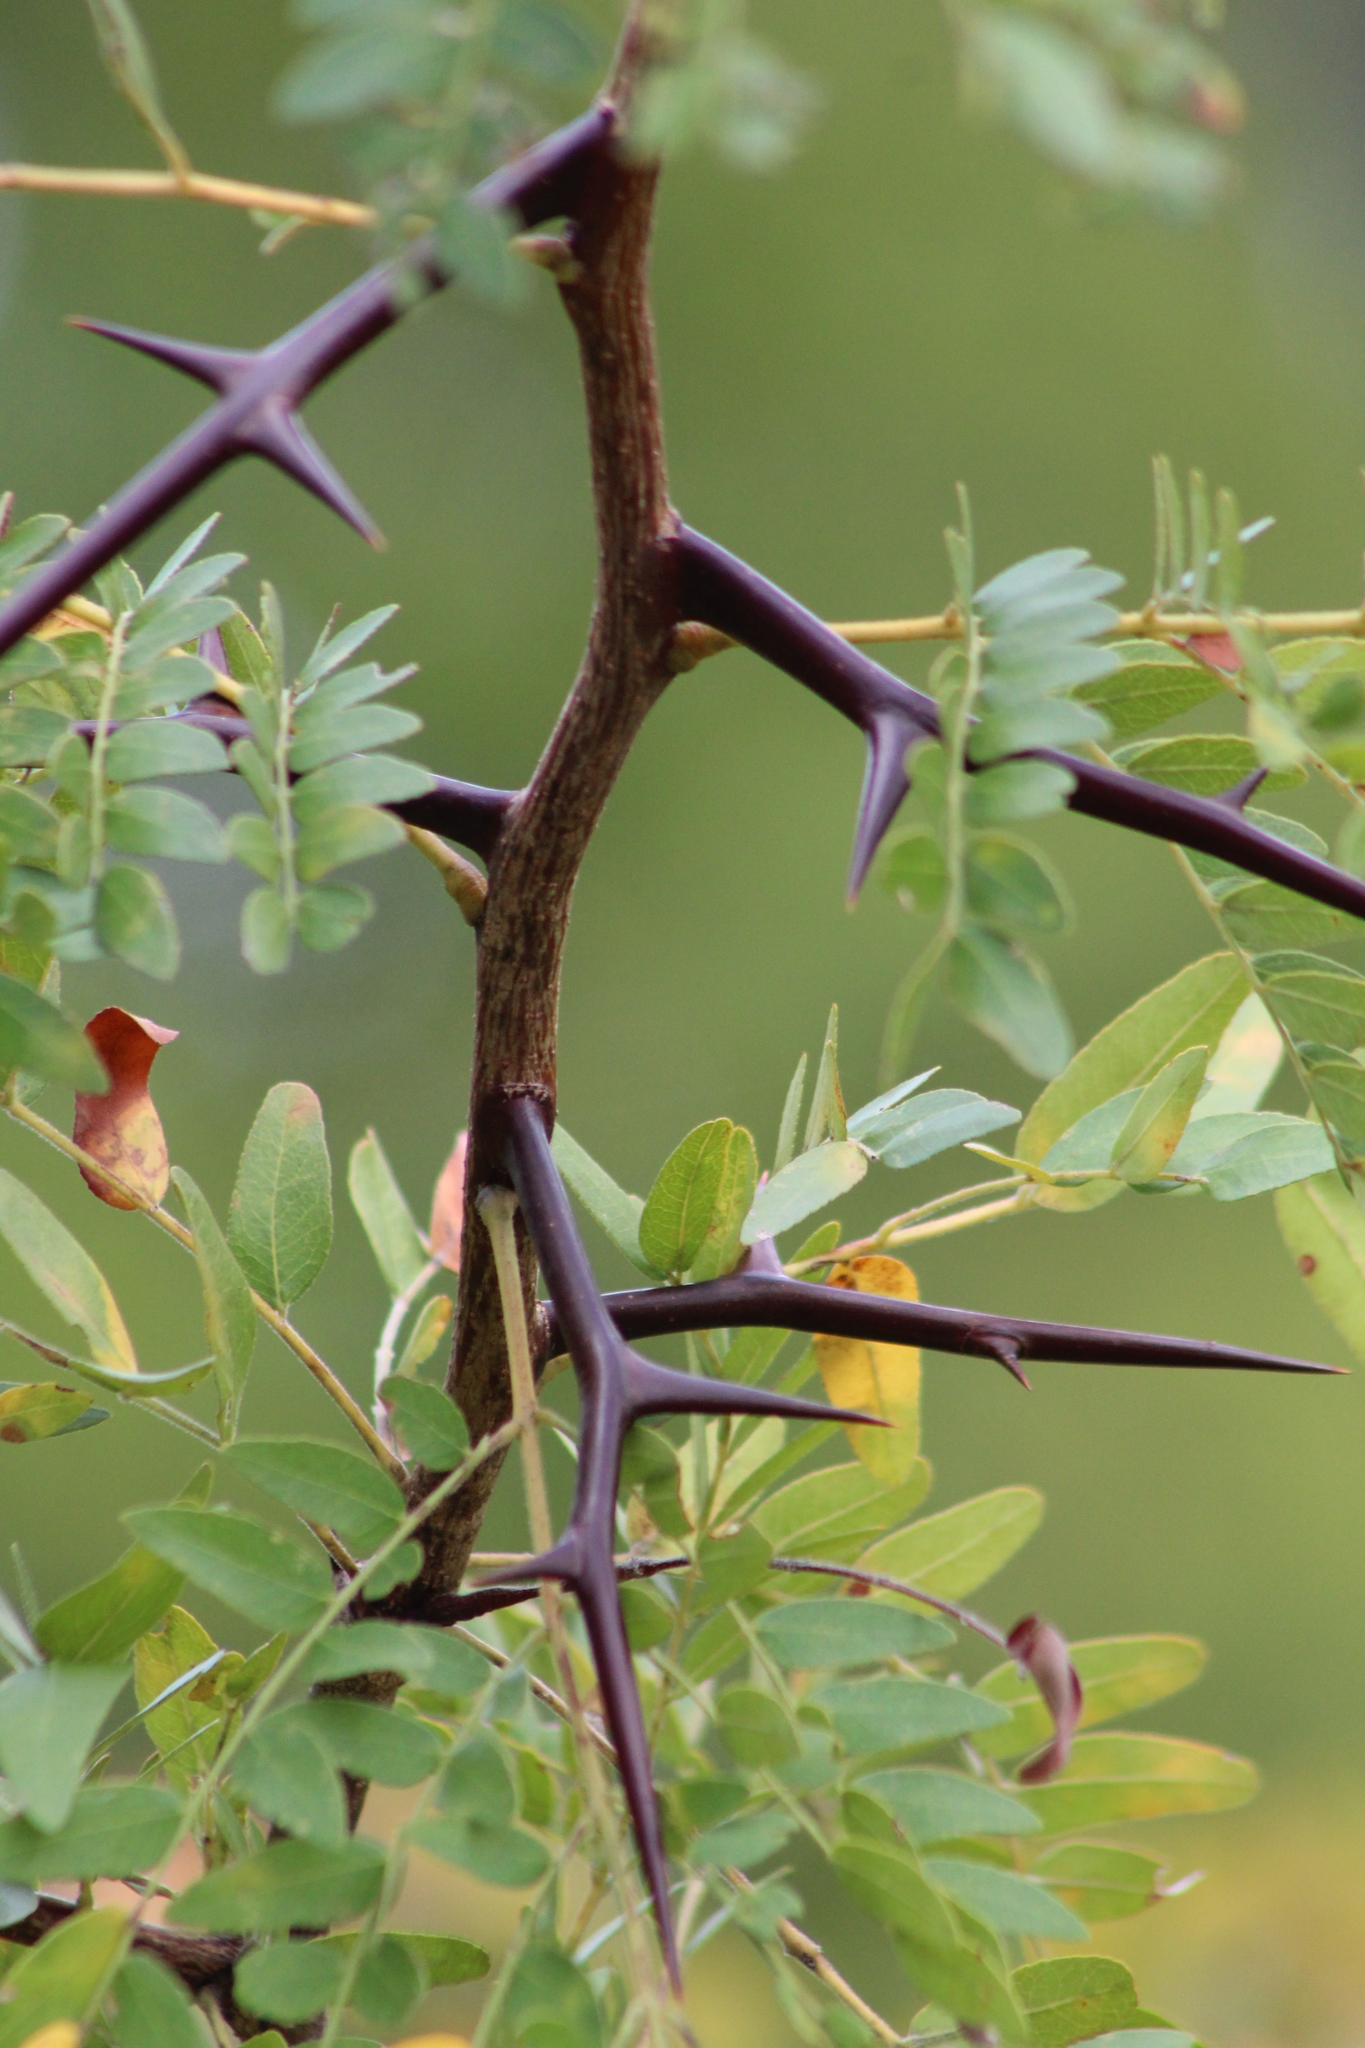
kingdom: Plantae
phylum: Tracheophyta
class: Magnoliopsida
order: Fabales
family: Fabaceae
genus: Gleditsia
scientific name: Gleditsia triacanthos
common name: Common honeylocust
